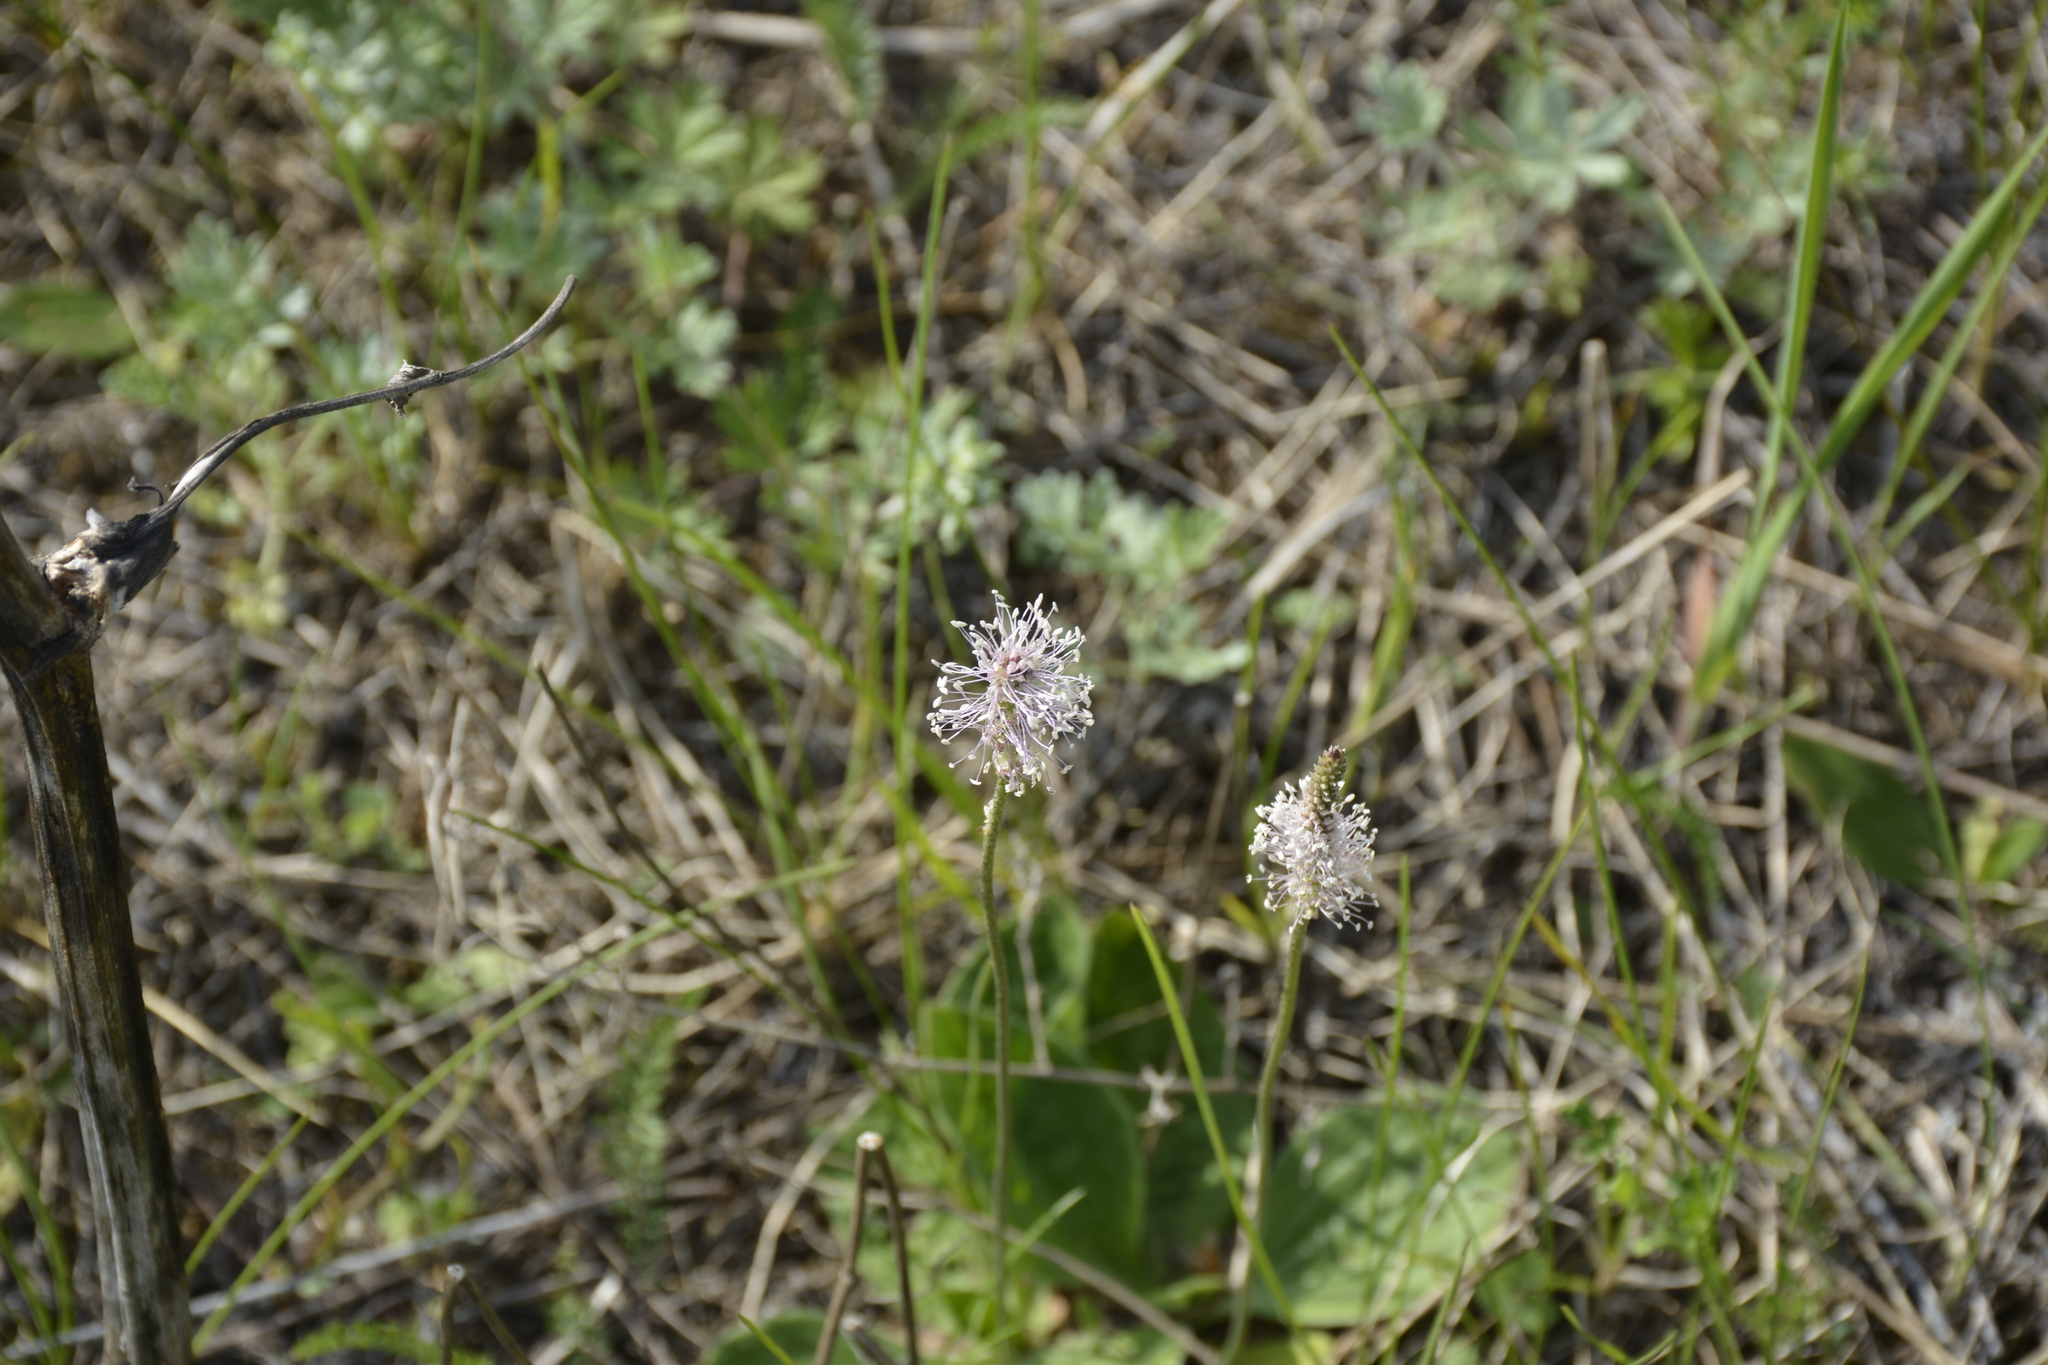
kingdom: Plantae
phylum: Tracheophyta
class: Magnoliopsida
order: Lamiales
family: Plantaginaceae
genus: Plantago
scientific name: Plantago media
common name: Hoary plantain
